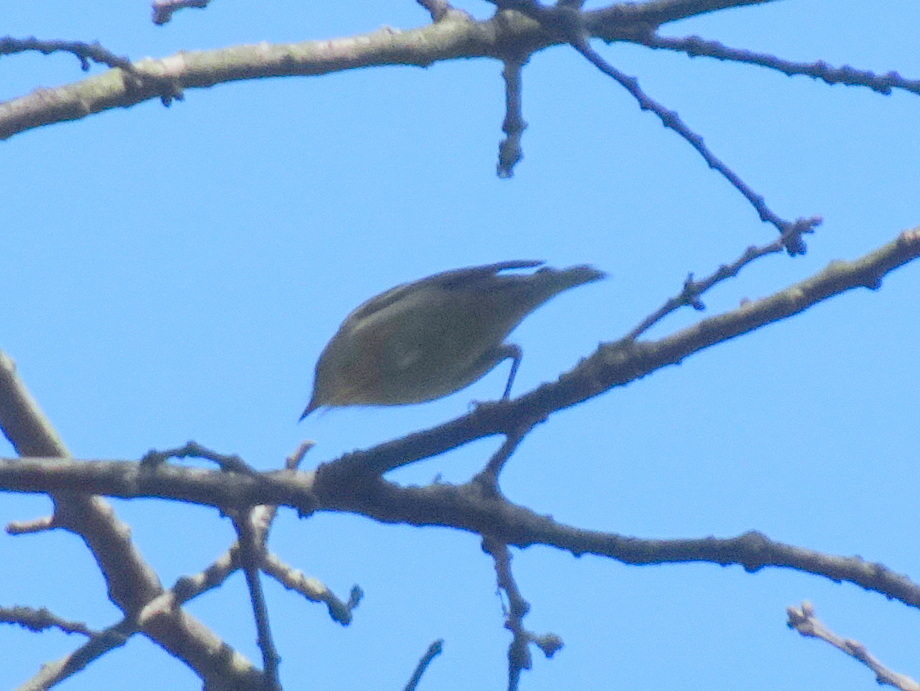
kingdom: Animalia
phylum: Chordata
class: Aves
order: Passeriformes
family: Parulidae
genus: Setophaga
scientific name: Setophaga striata
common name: Blackpoll warbler
